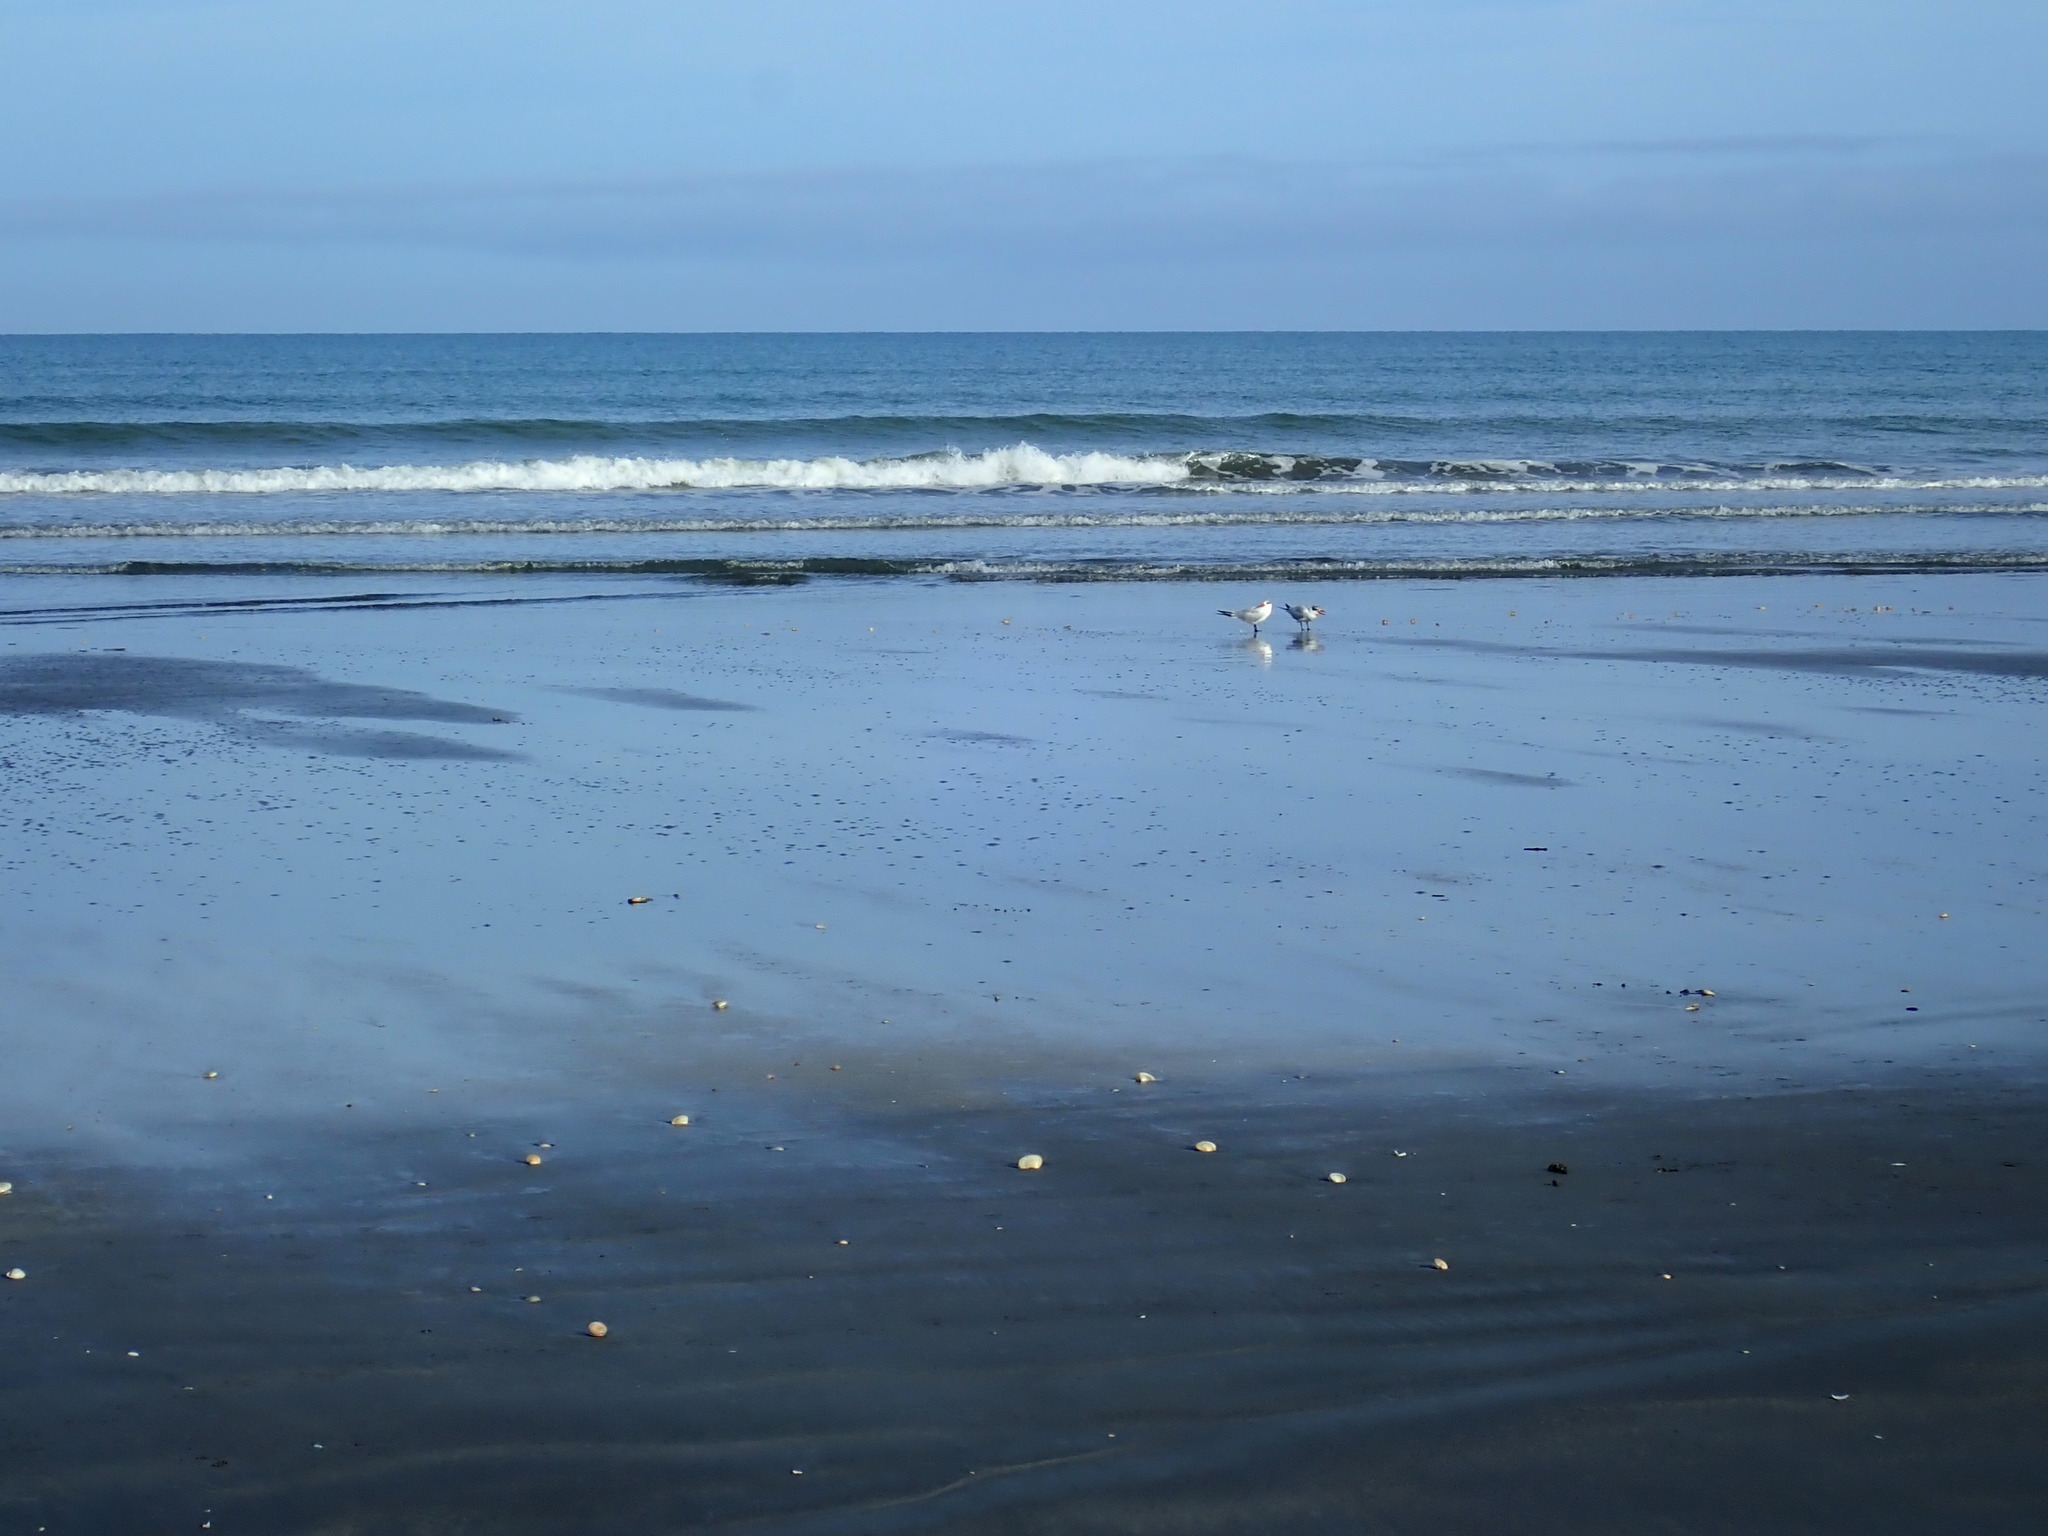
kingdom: Animalia
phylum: Chordata
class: Aves
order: Charadriiformes
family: Laridae
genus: Hydroprogne
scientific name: Hydroprogne caspia
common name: Caspian tern
